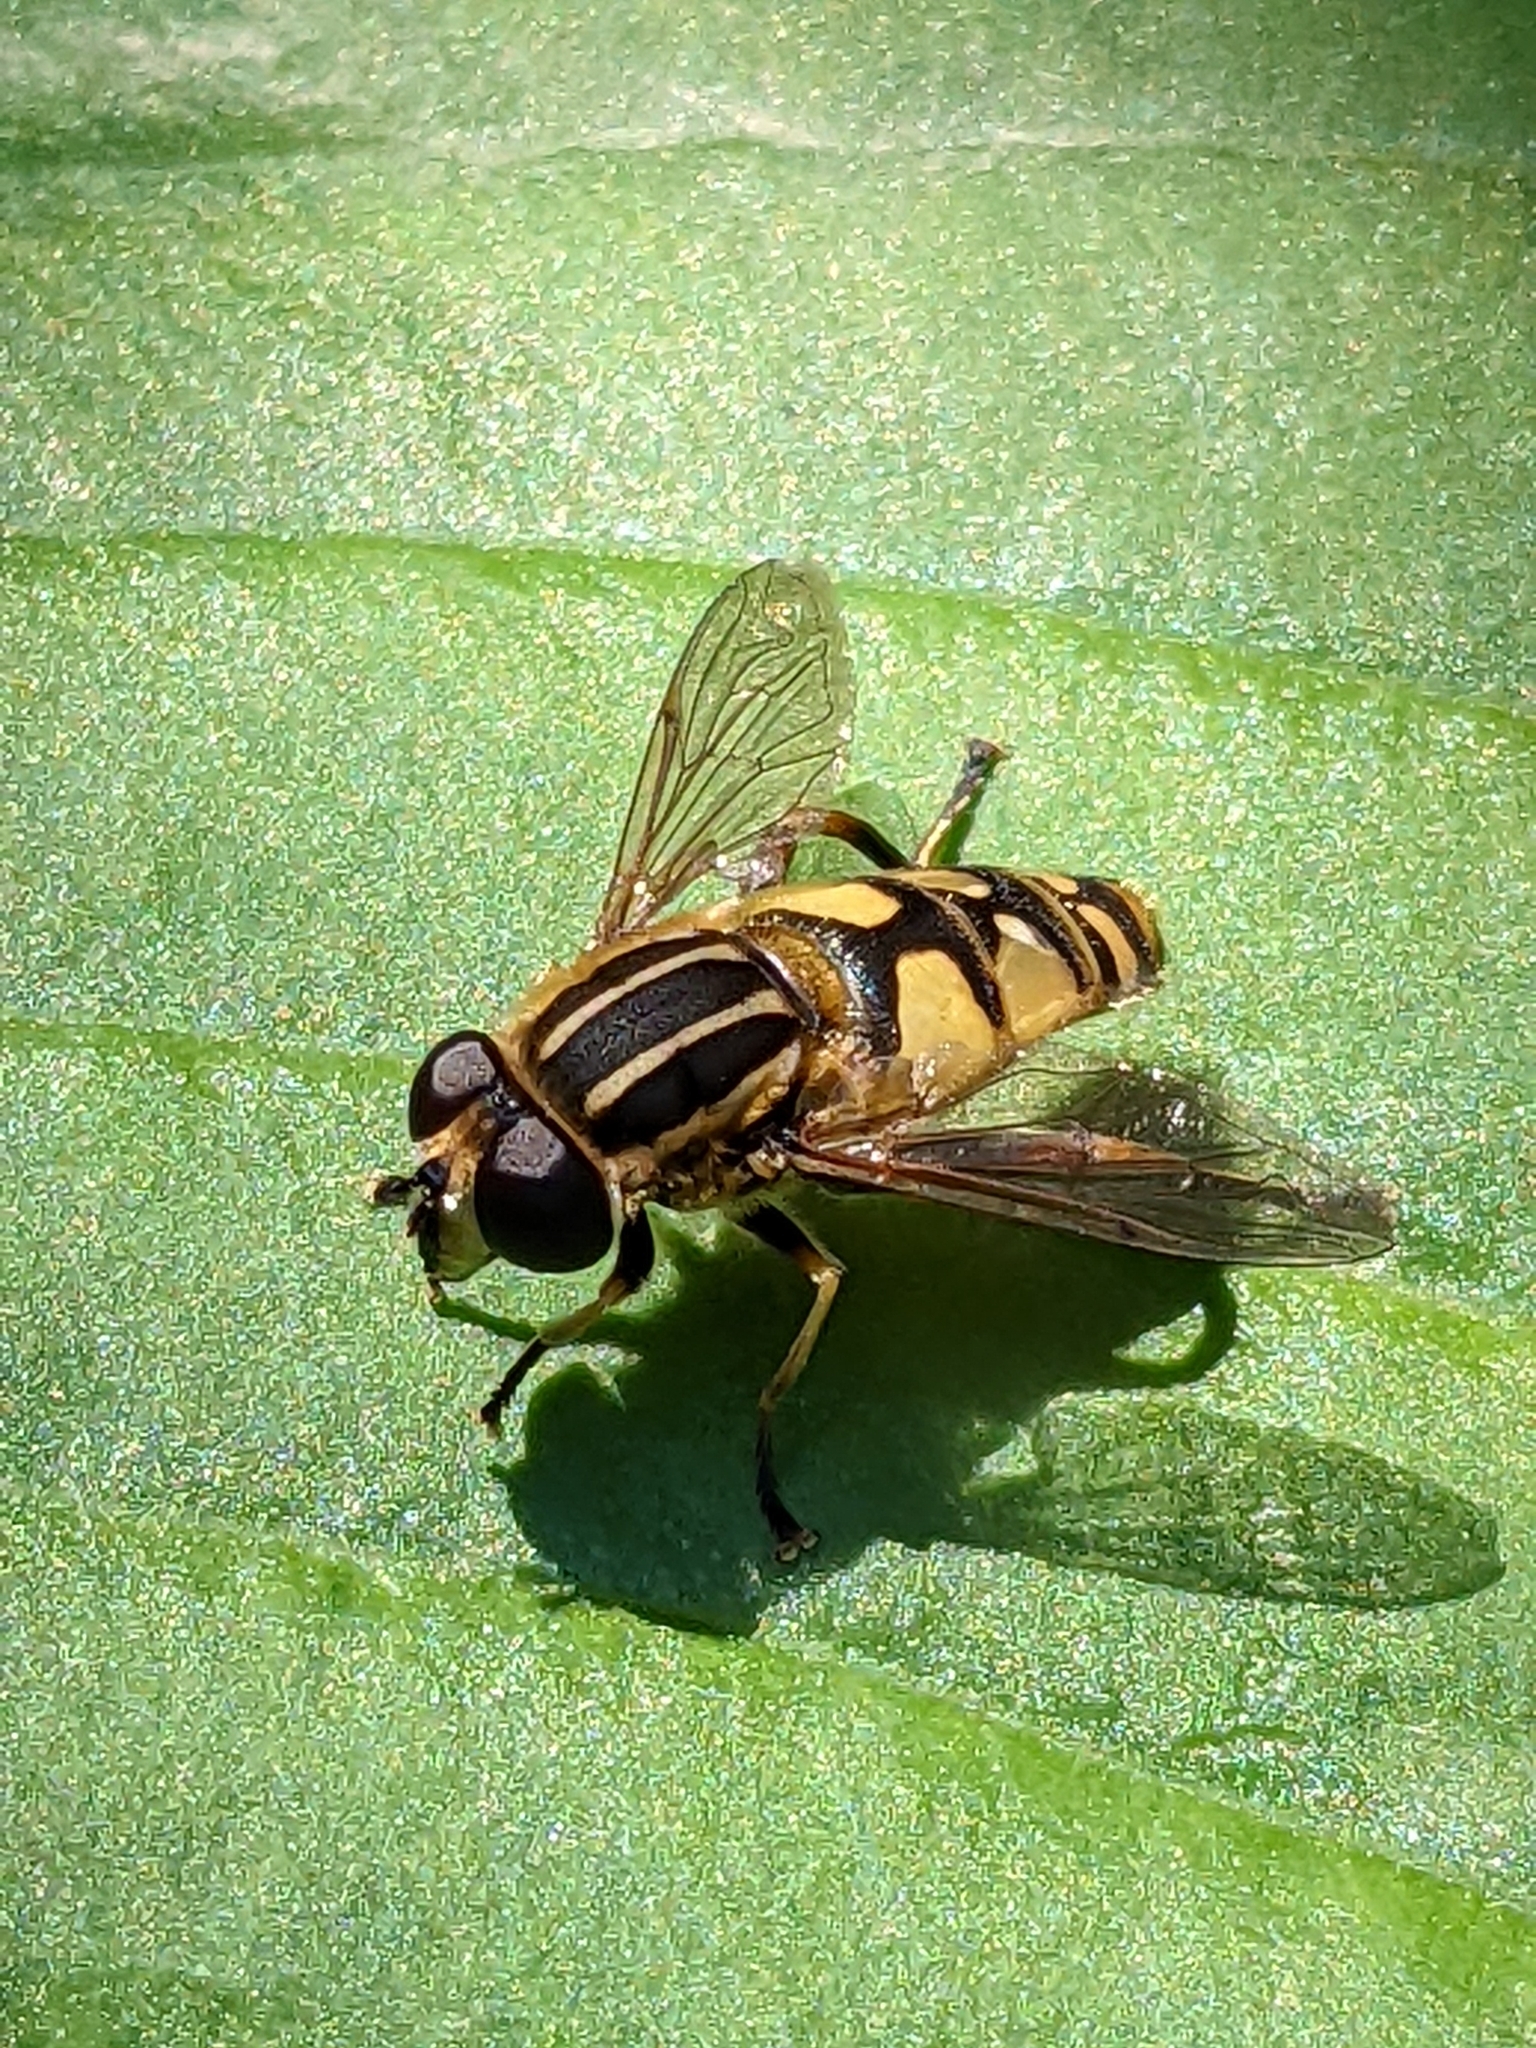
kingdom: Animalia
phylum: Arthropoda
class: Insecta
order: Diptera
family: Syrphidae
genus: Helophilus
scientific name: Helophilus pendulus
